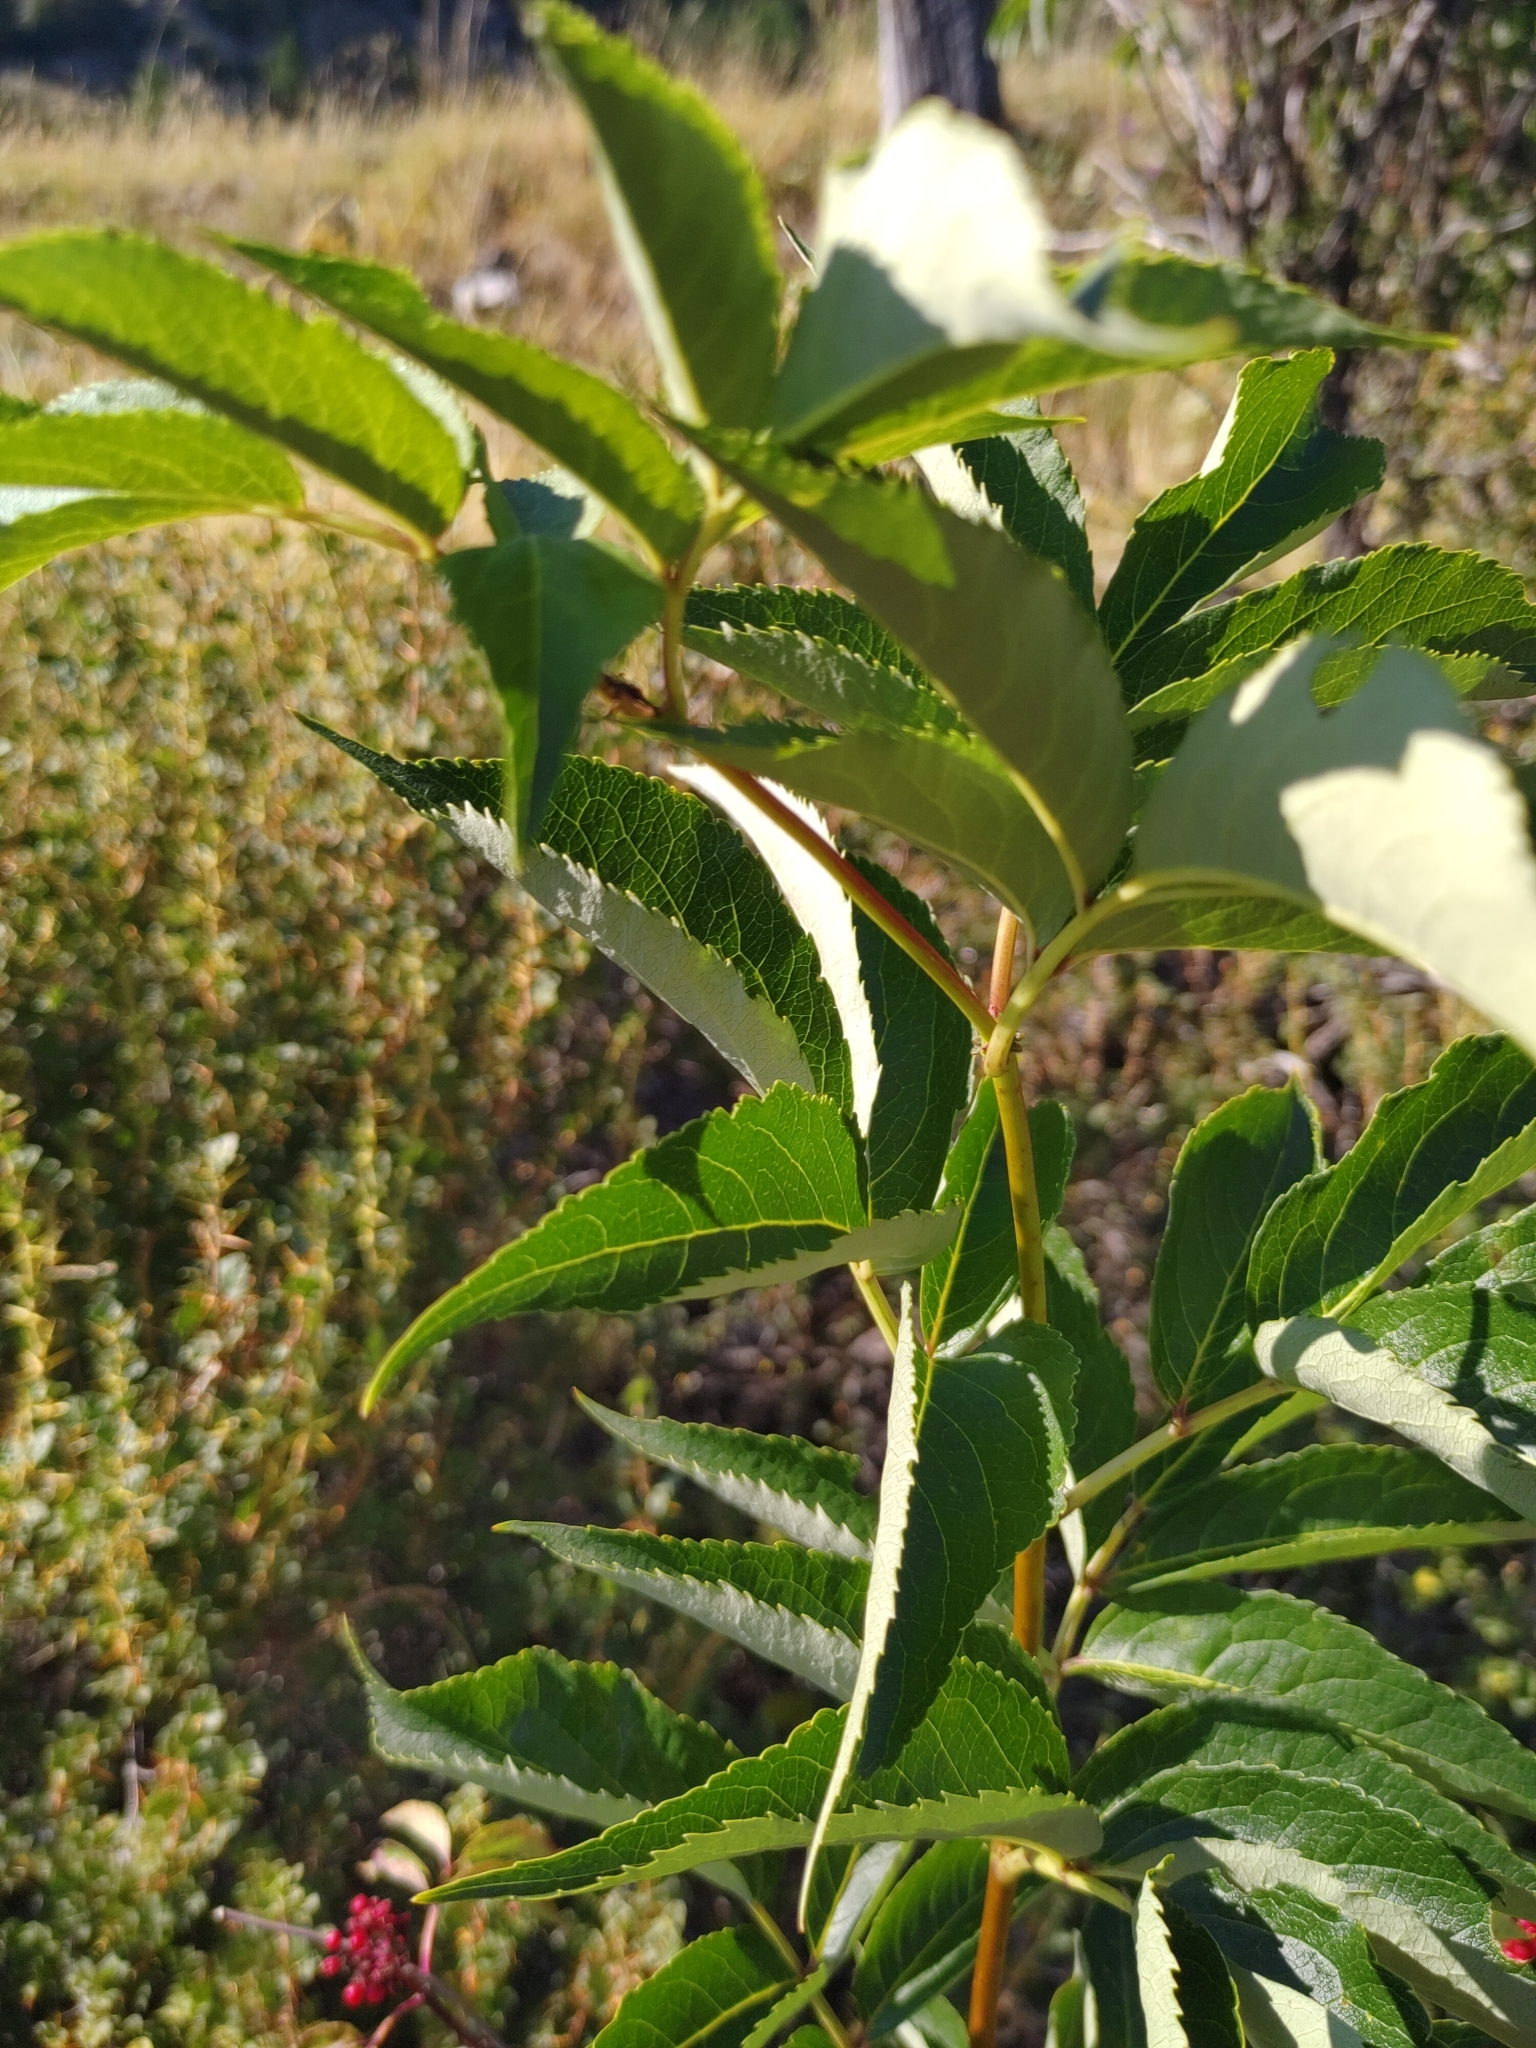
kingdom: Plantae
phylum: Tracheophyta
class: Magnoliopsida
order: Dipsacales
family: Viburnaceae
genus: Sambucus
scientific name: Sambucus racemosa
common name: Red-berried elder
